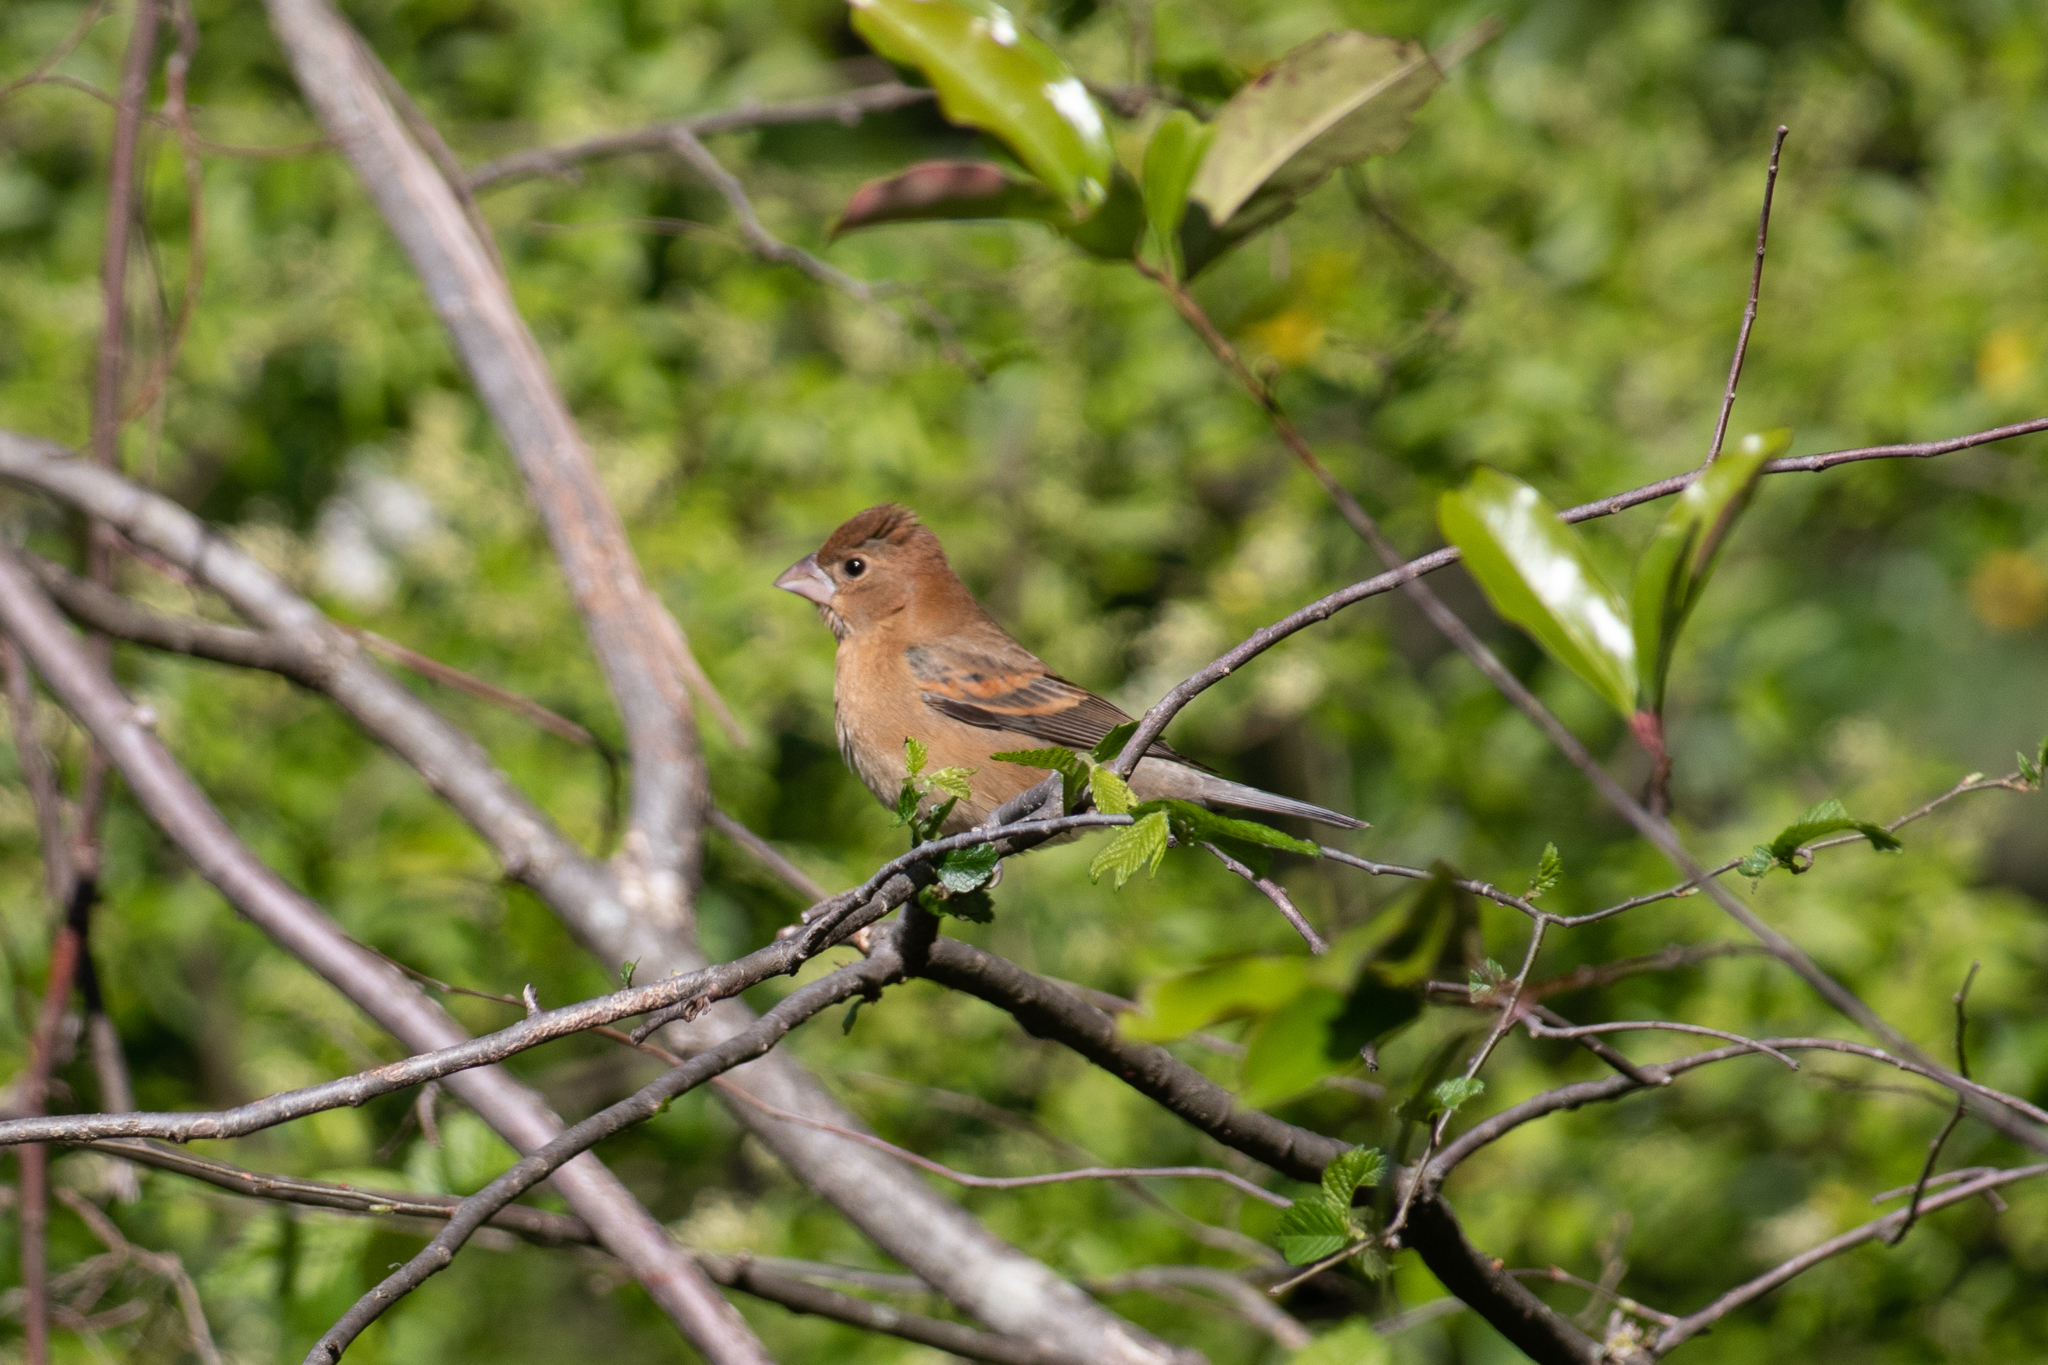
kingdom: Animalia
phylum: Chordata
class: Aves
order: Passeriformes
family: Cardinalidae
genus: Passerina
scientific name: Passerina caerulea
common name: Blue grosbeak
